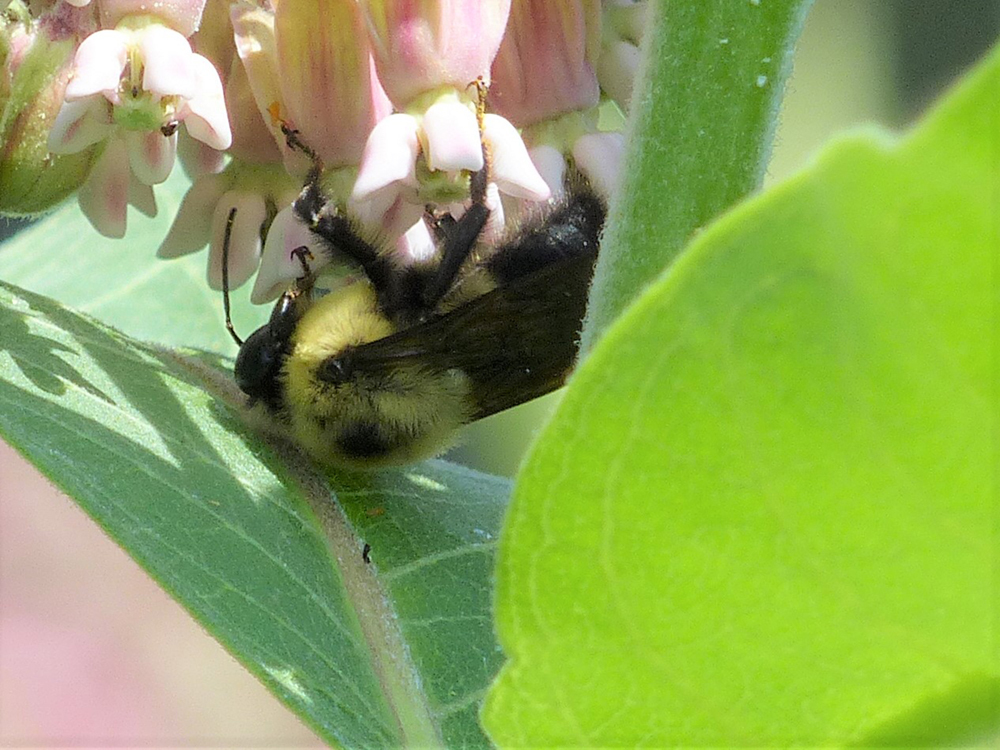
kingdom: Animalia
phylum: Arthropoda
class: Insecta
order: Hymenoptera
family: Apidae
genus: Bombus
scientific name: Bombus griseocollis
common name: Brown-belted bumble bee
